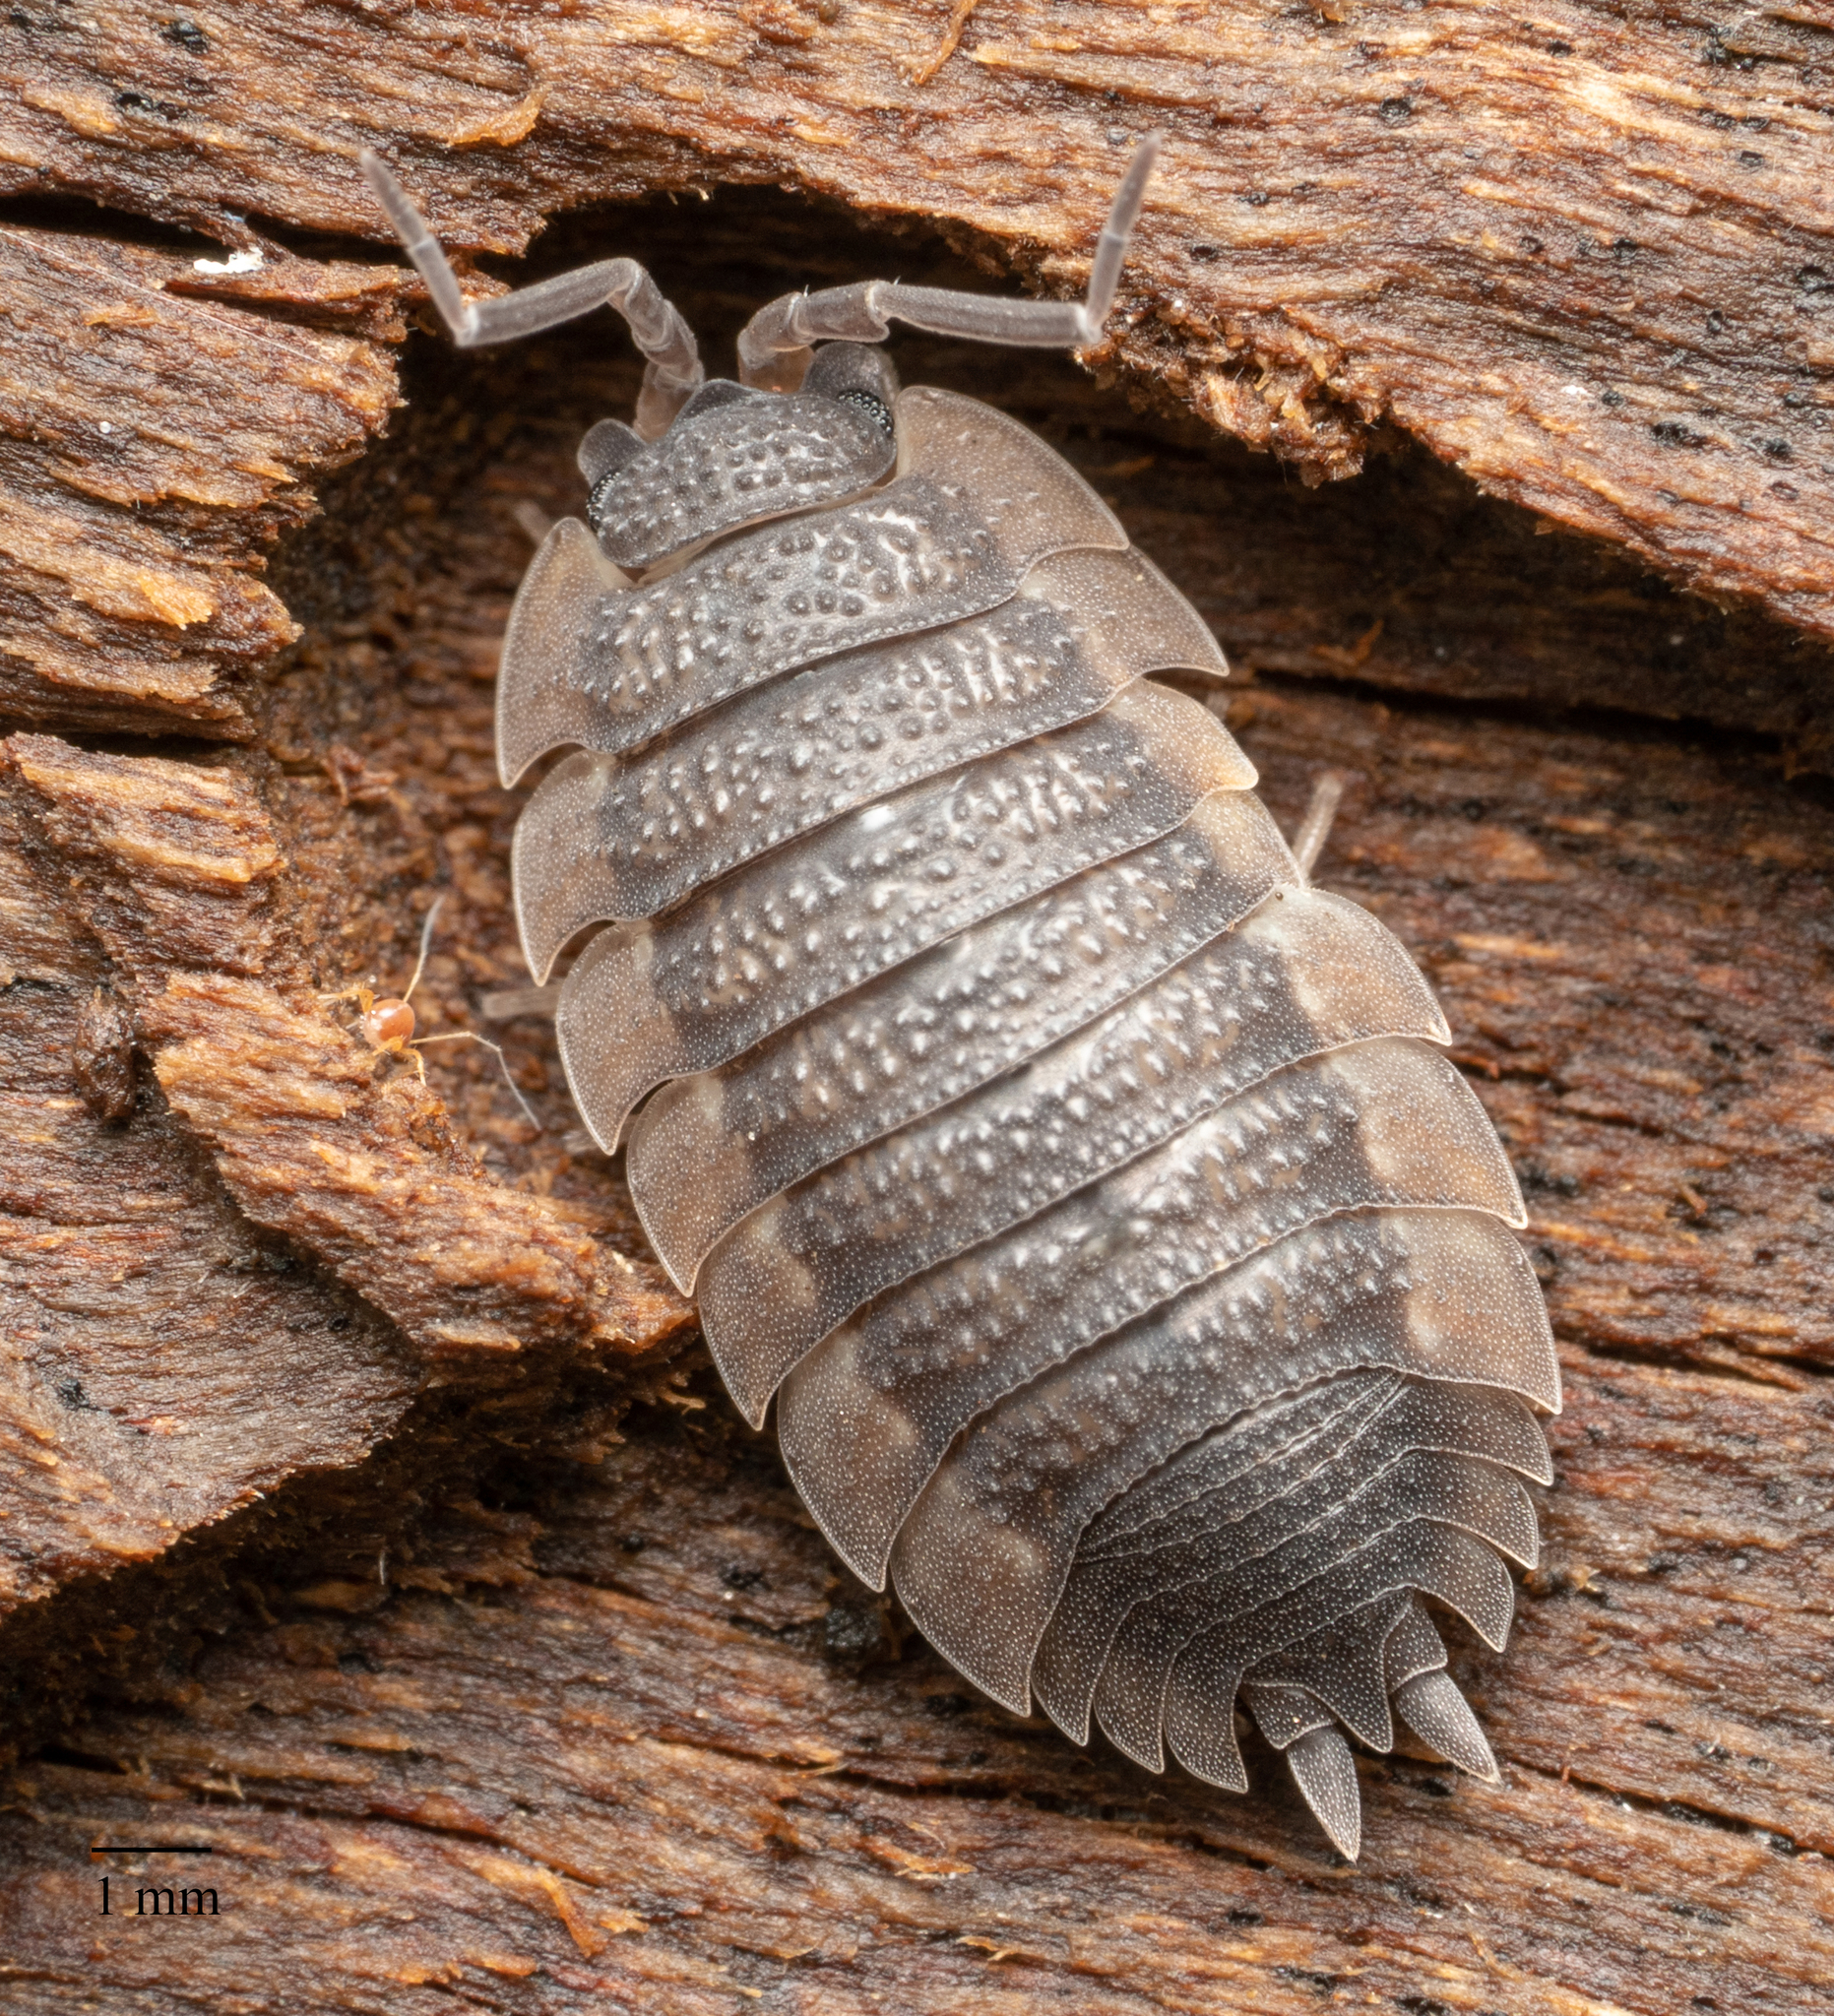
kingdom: Animalia
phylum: Arthropoda
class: Malacostraca
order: Isopoda
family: Porcellionidae
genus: Porcellio
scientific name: Porcellio scaber
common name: Common rough woodlouse
